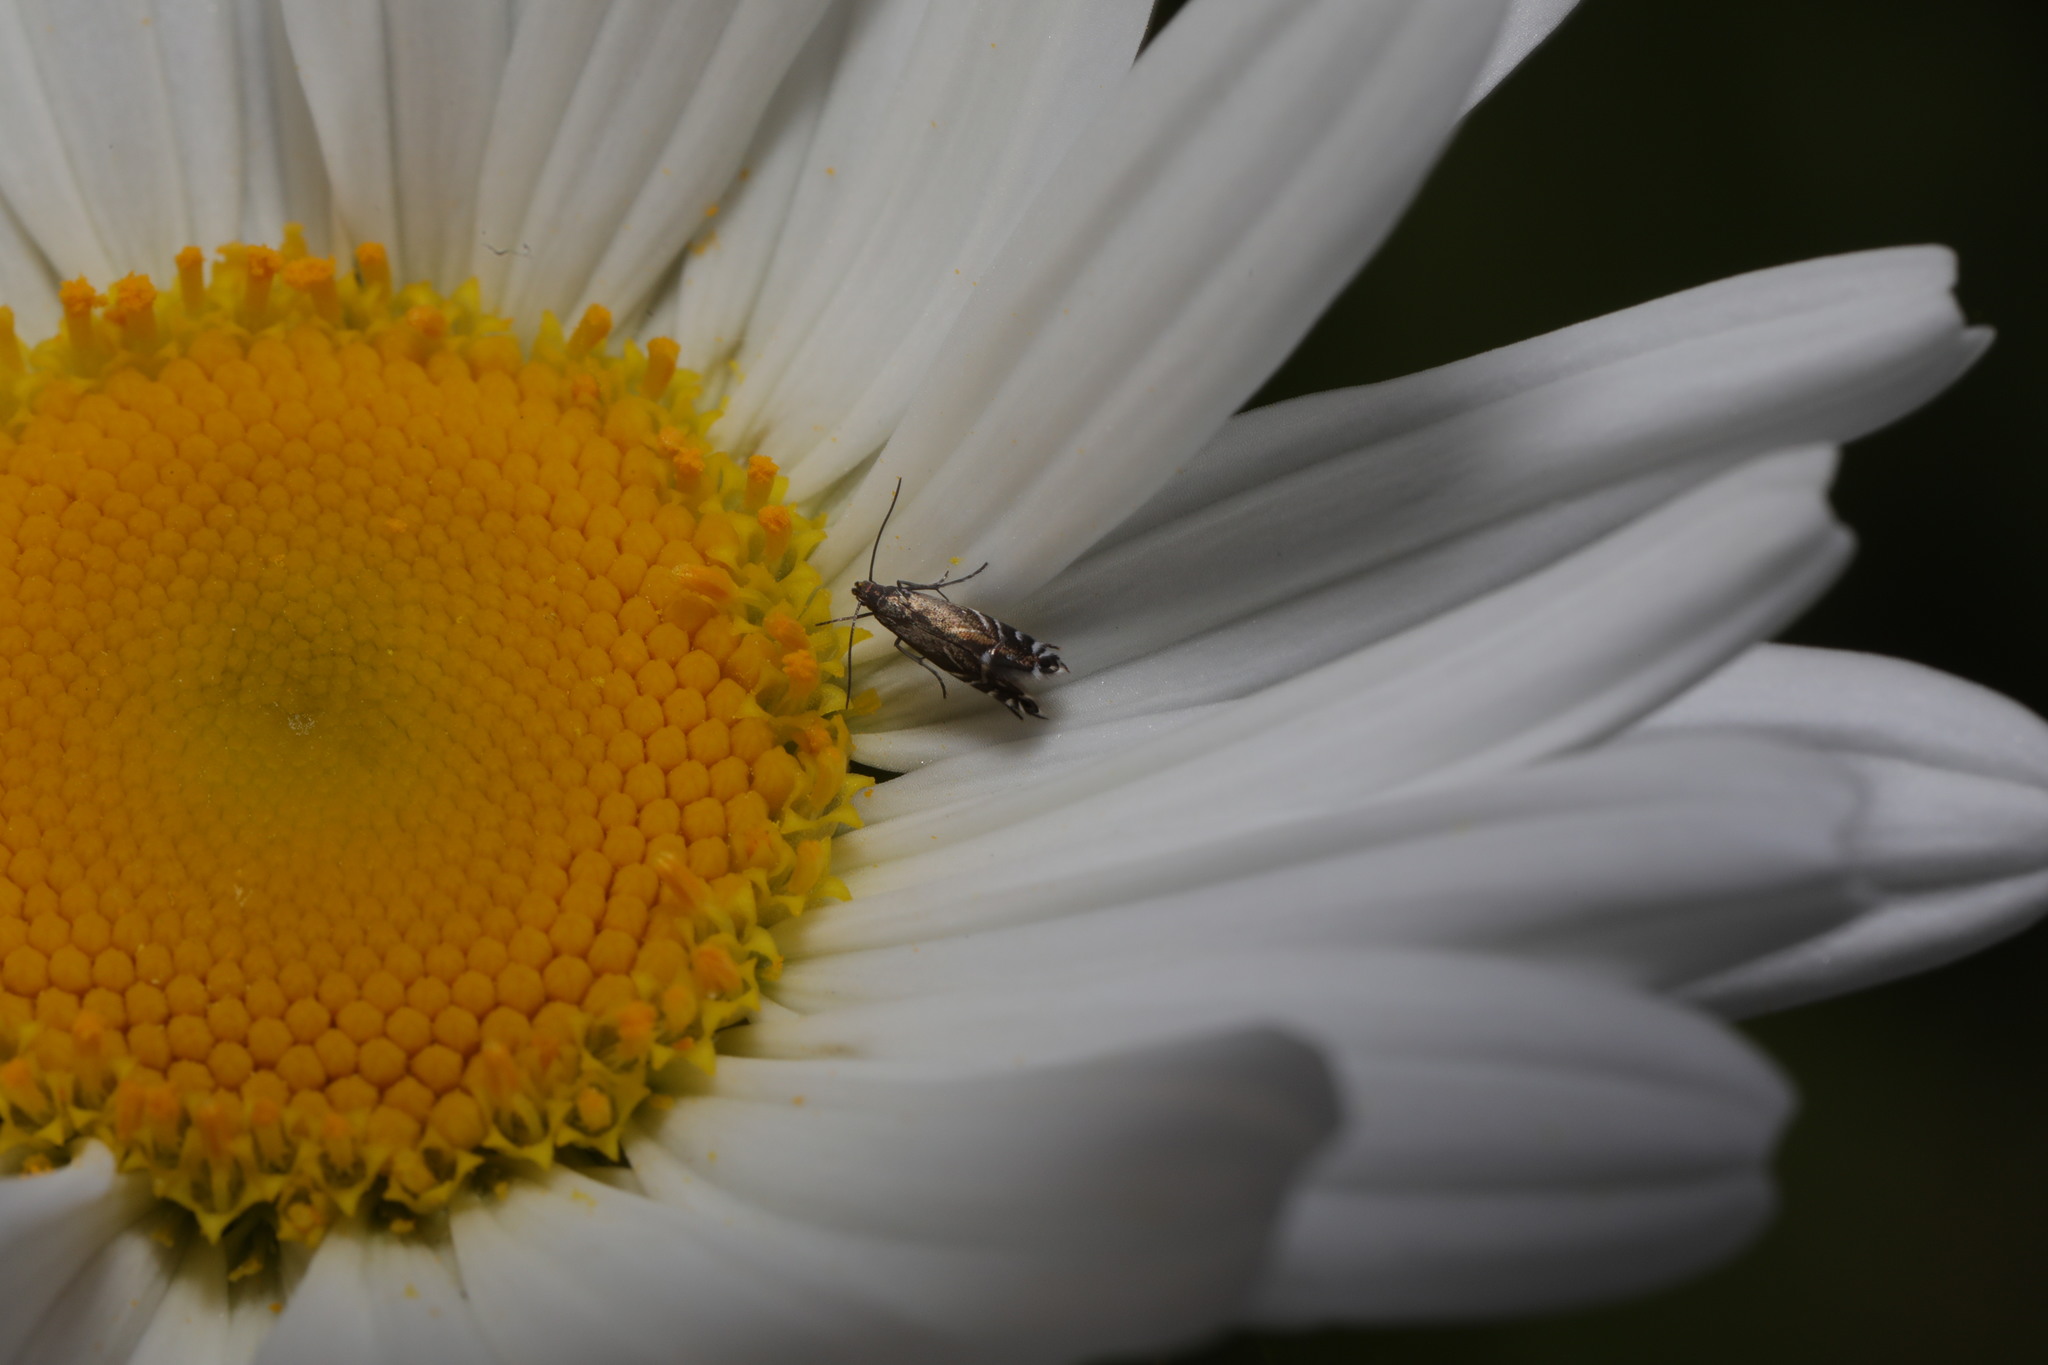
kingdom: Plantae
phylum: Tracheophyta
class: Magnoliopsida
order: Asterales
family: Asteraceae
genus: Leucanthemum
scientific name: Leucanthemum vulgare
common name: Oxeye daisy
